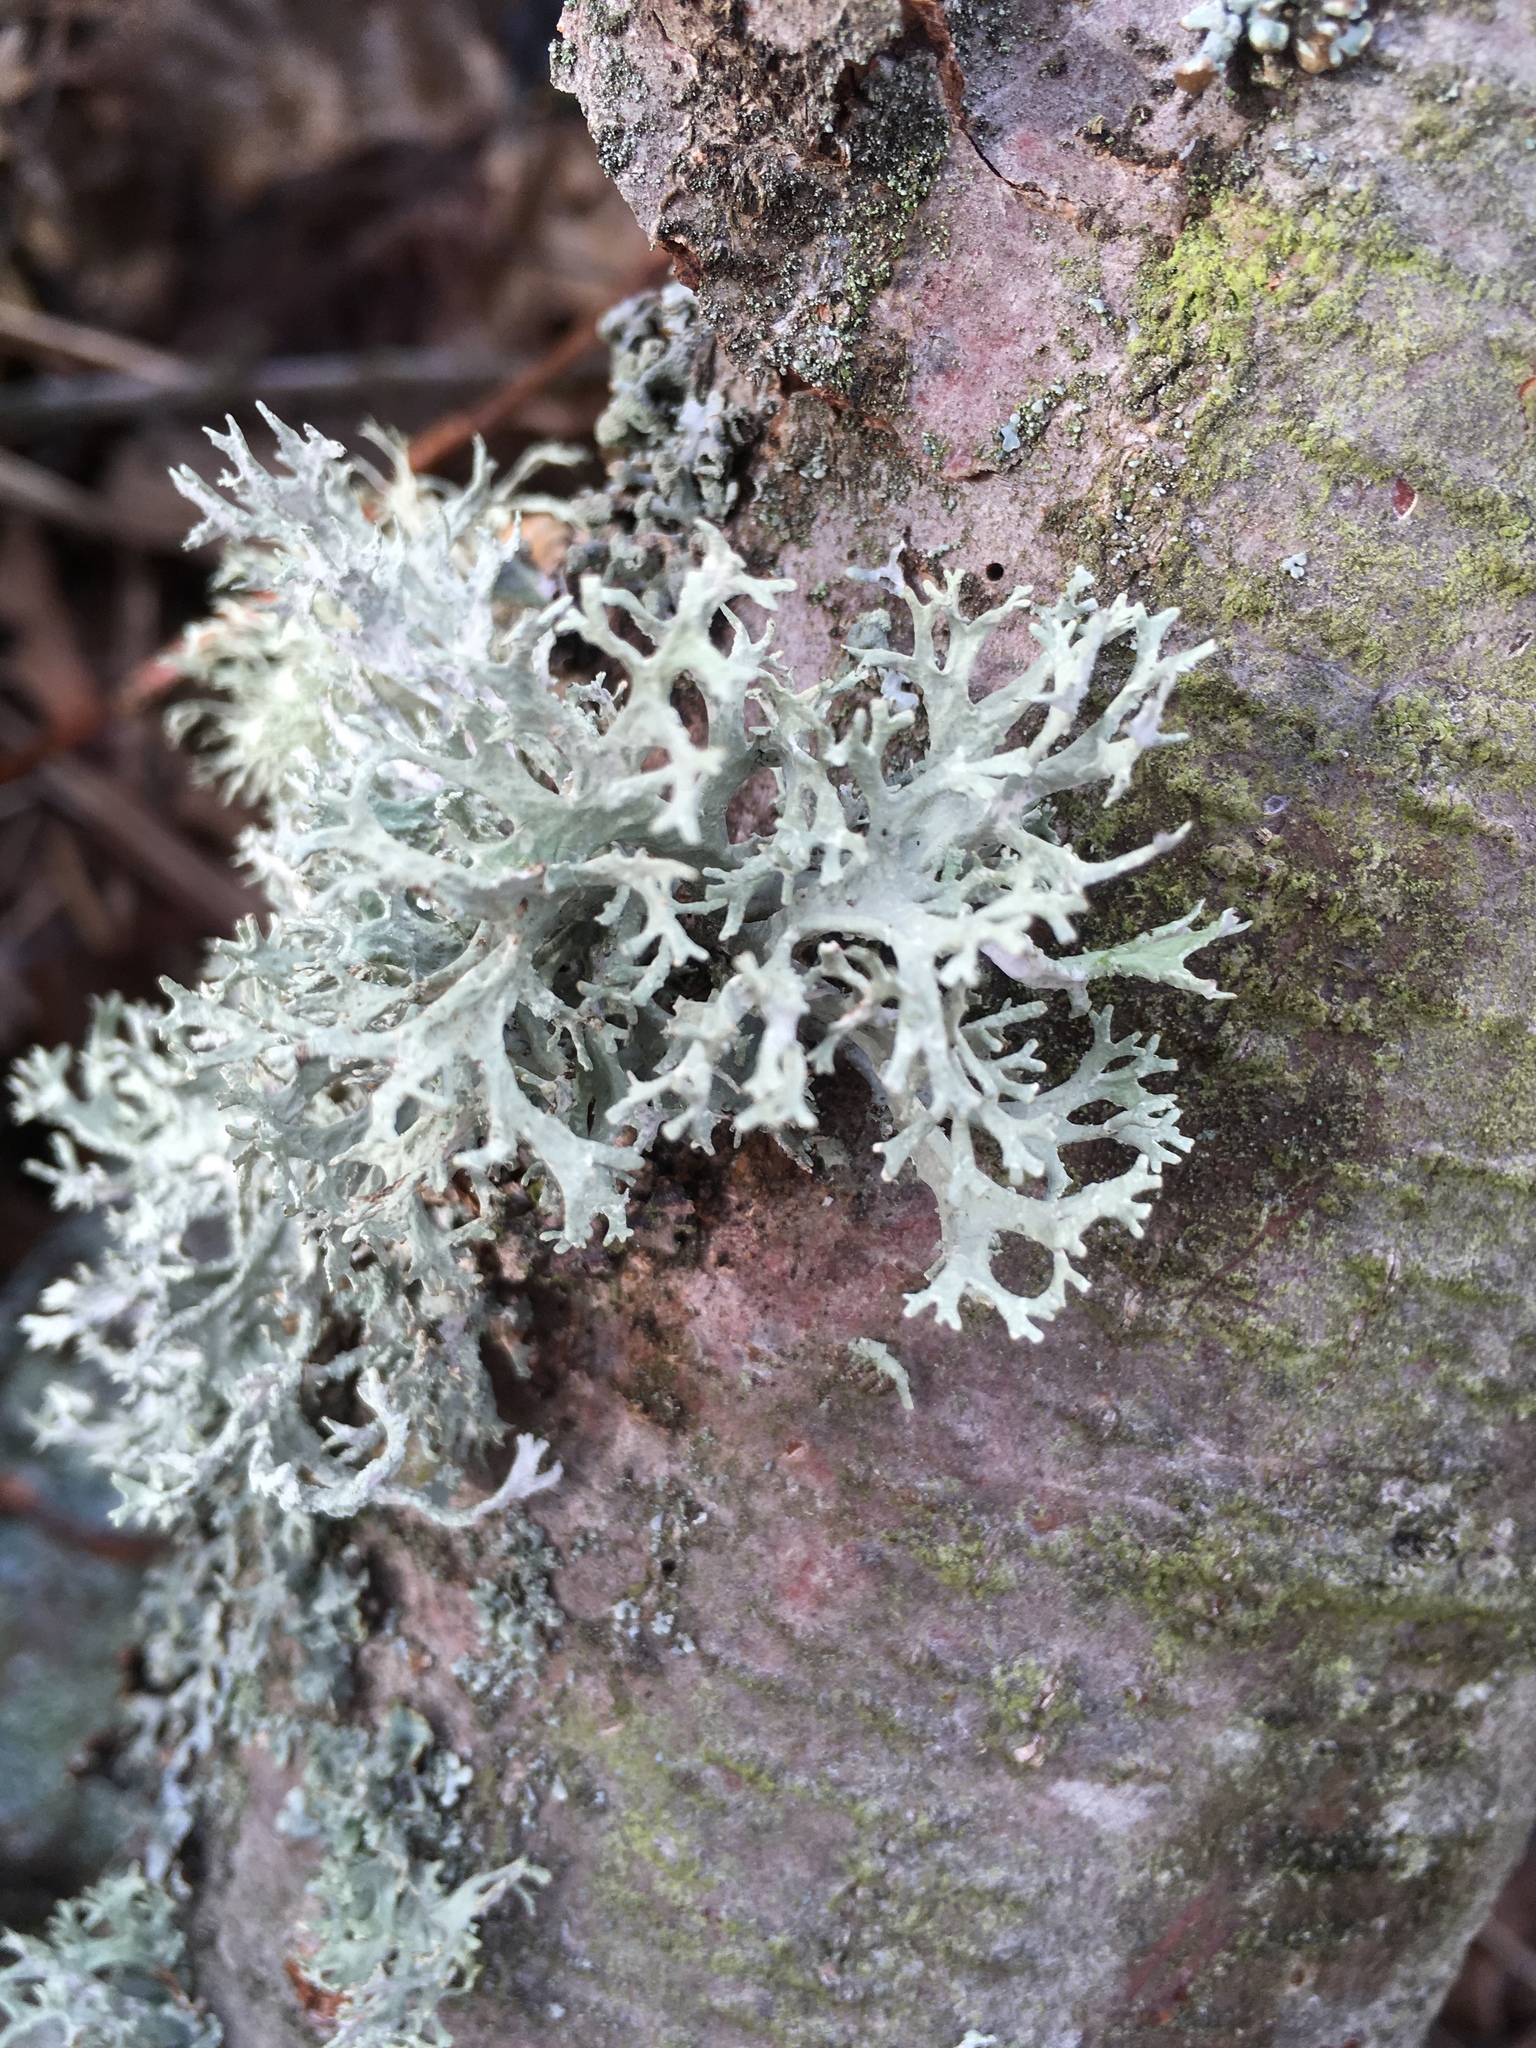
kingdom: Fungi
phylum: Ascomycota
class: Lecanoromycetes
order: Lecanorales
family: Parmeliaceae
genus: Evernia
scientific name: Evernia prunastri
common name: Oak moss
